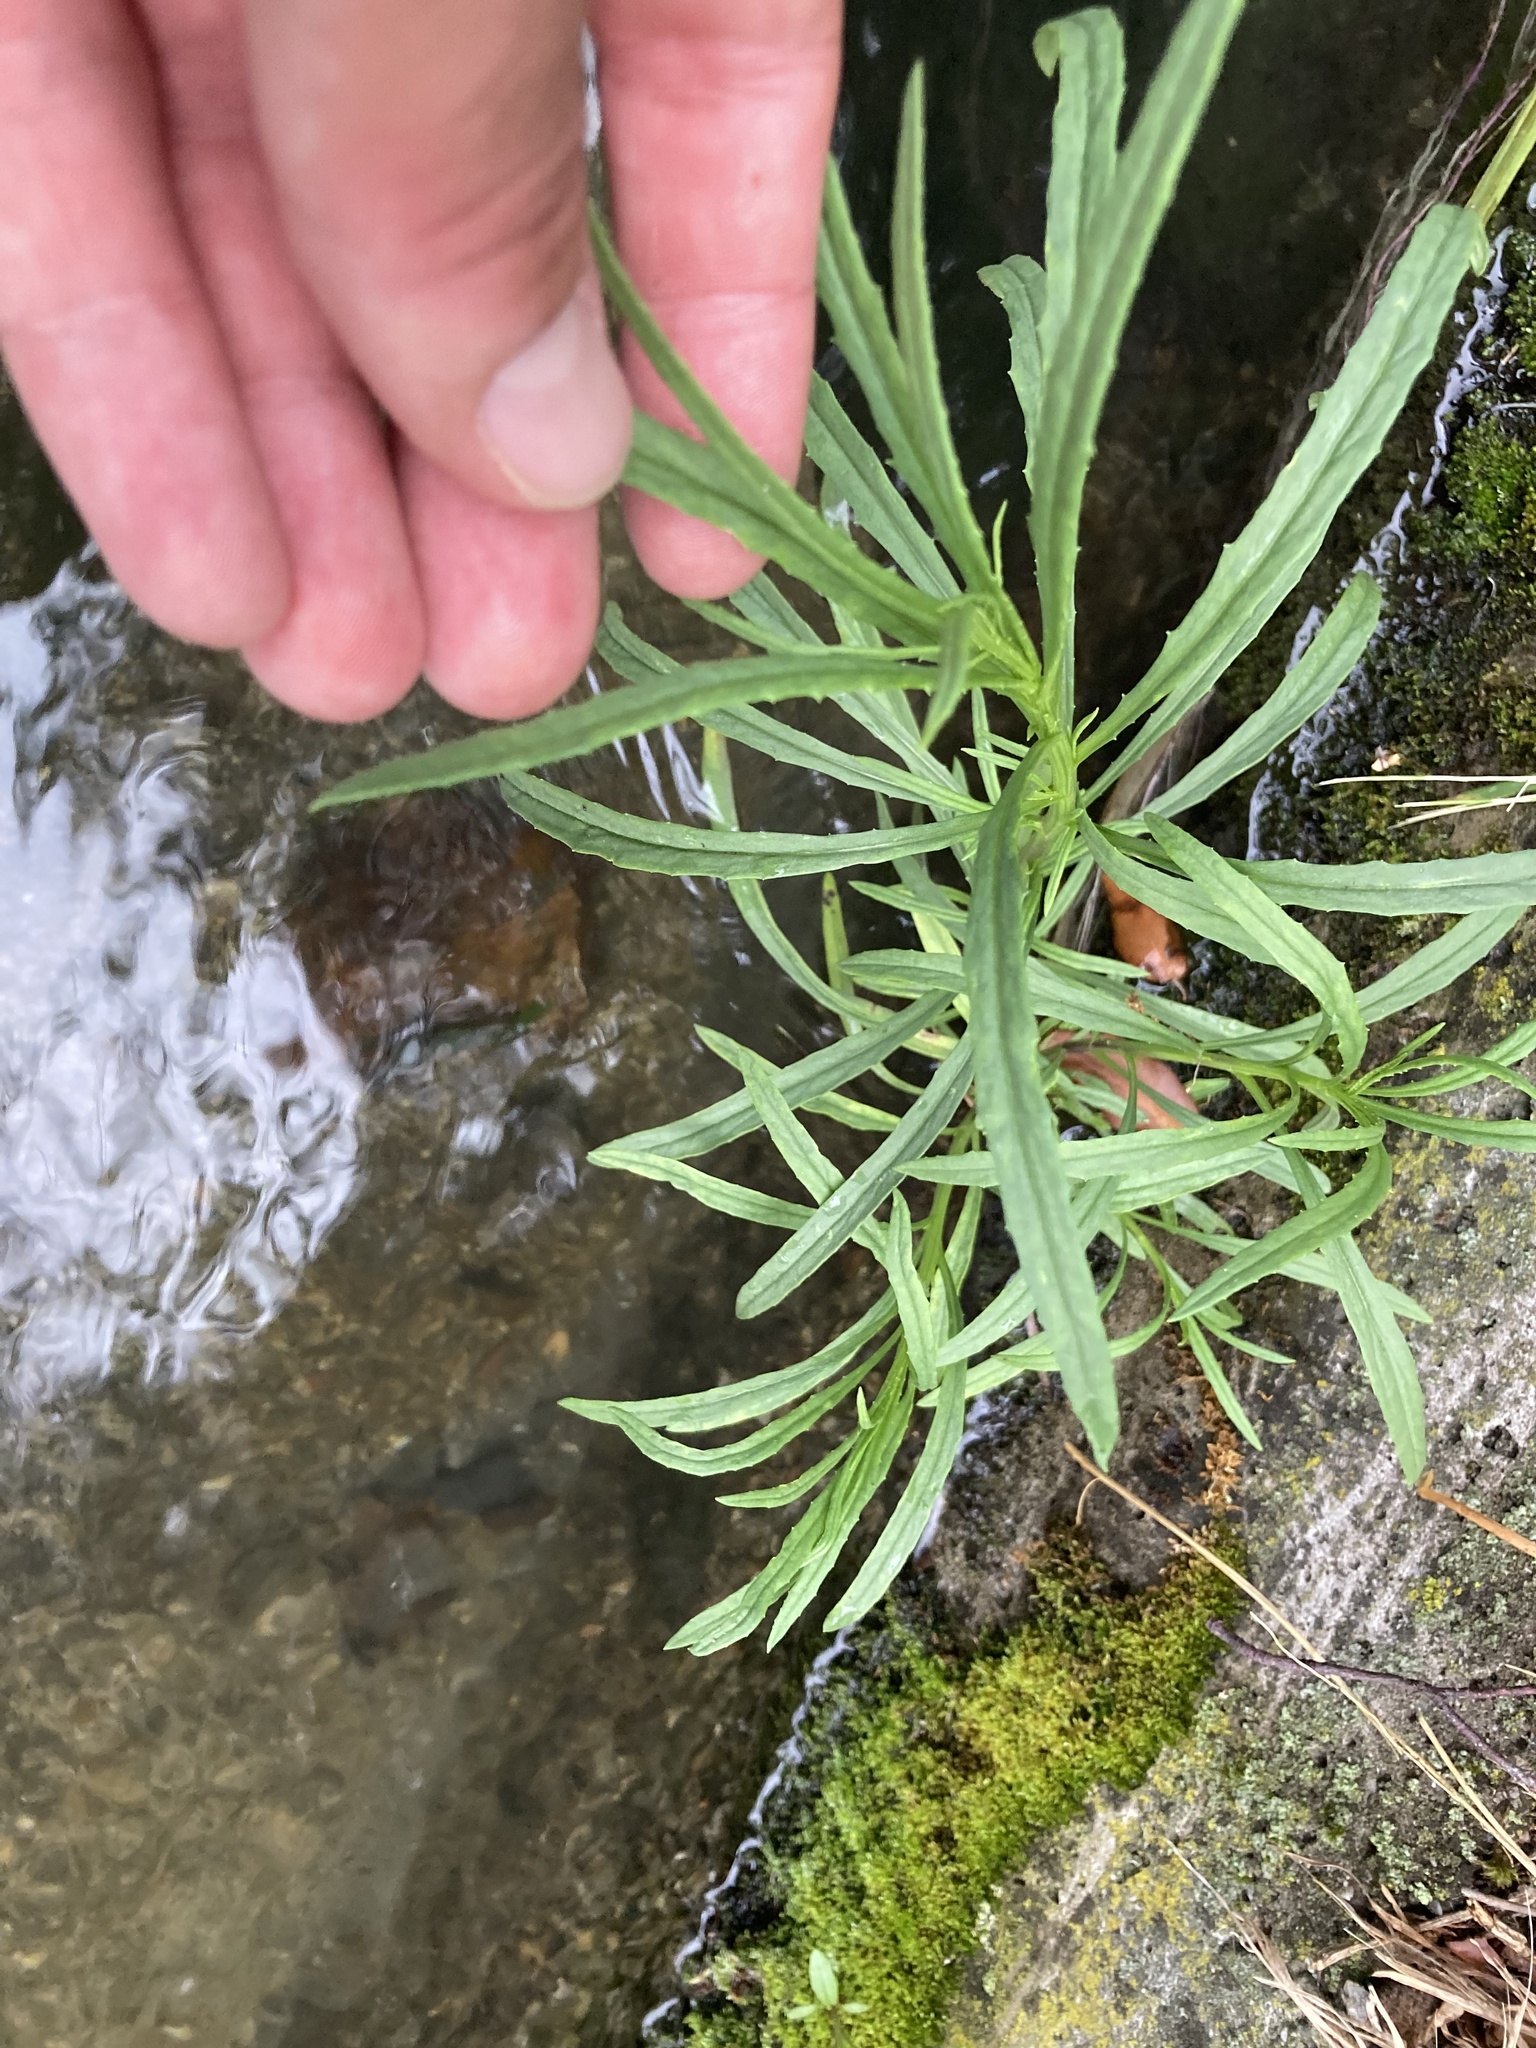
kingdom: Plantae
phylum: Tracheophyta
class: Magnoliopsida
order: Asterales
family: Asteraceae
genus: Senecio
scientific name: Senecio inaequidens
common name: Narrow-leaved ragwort
